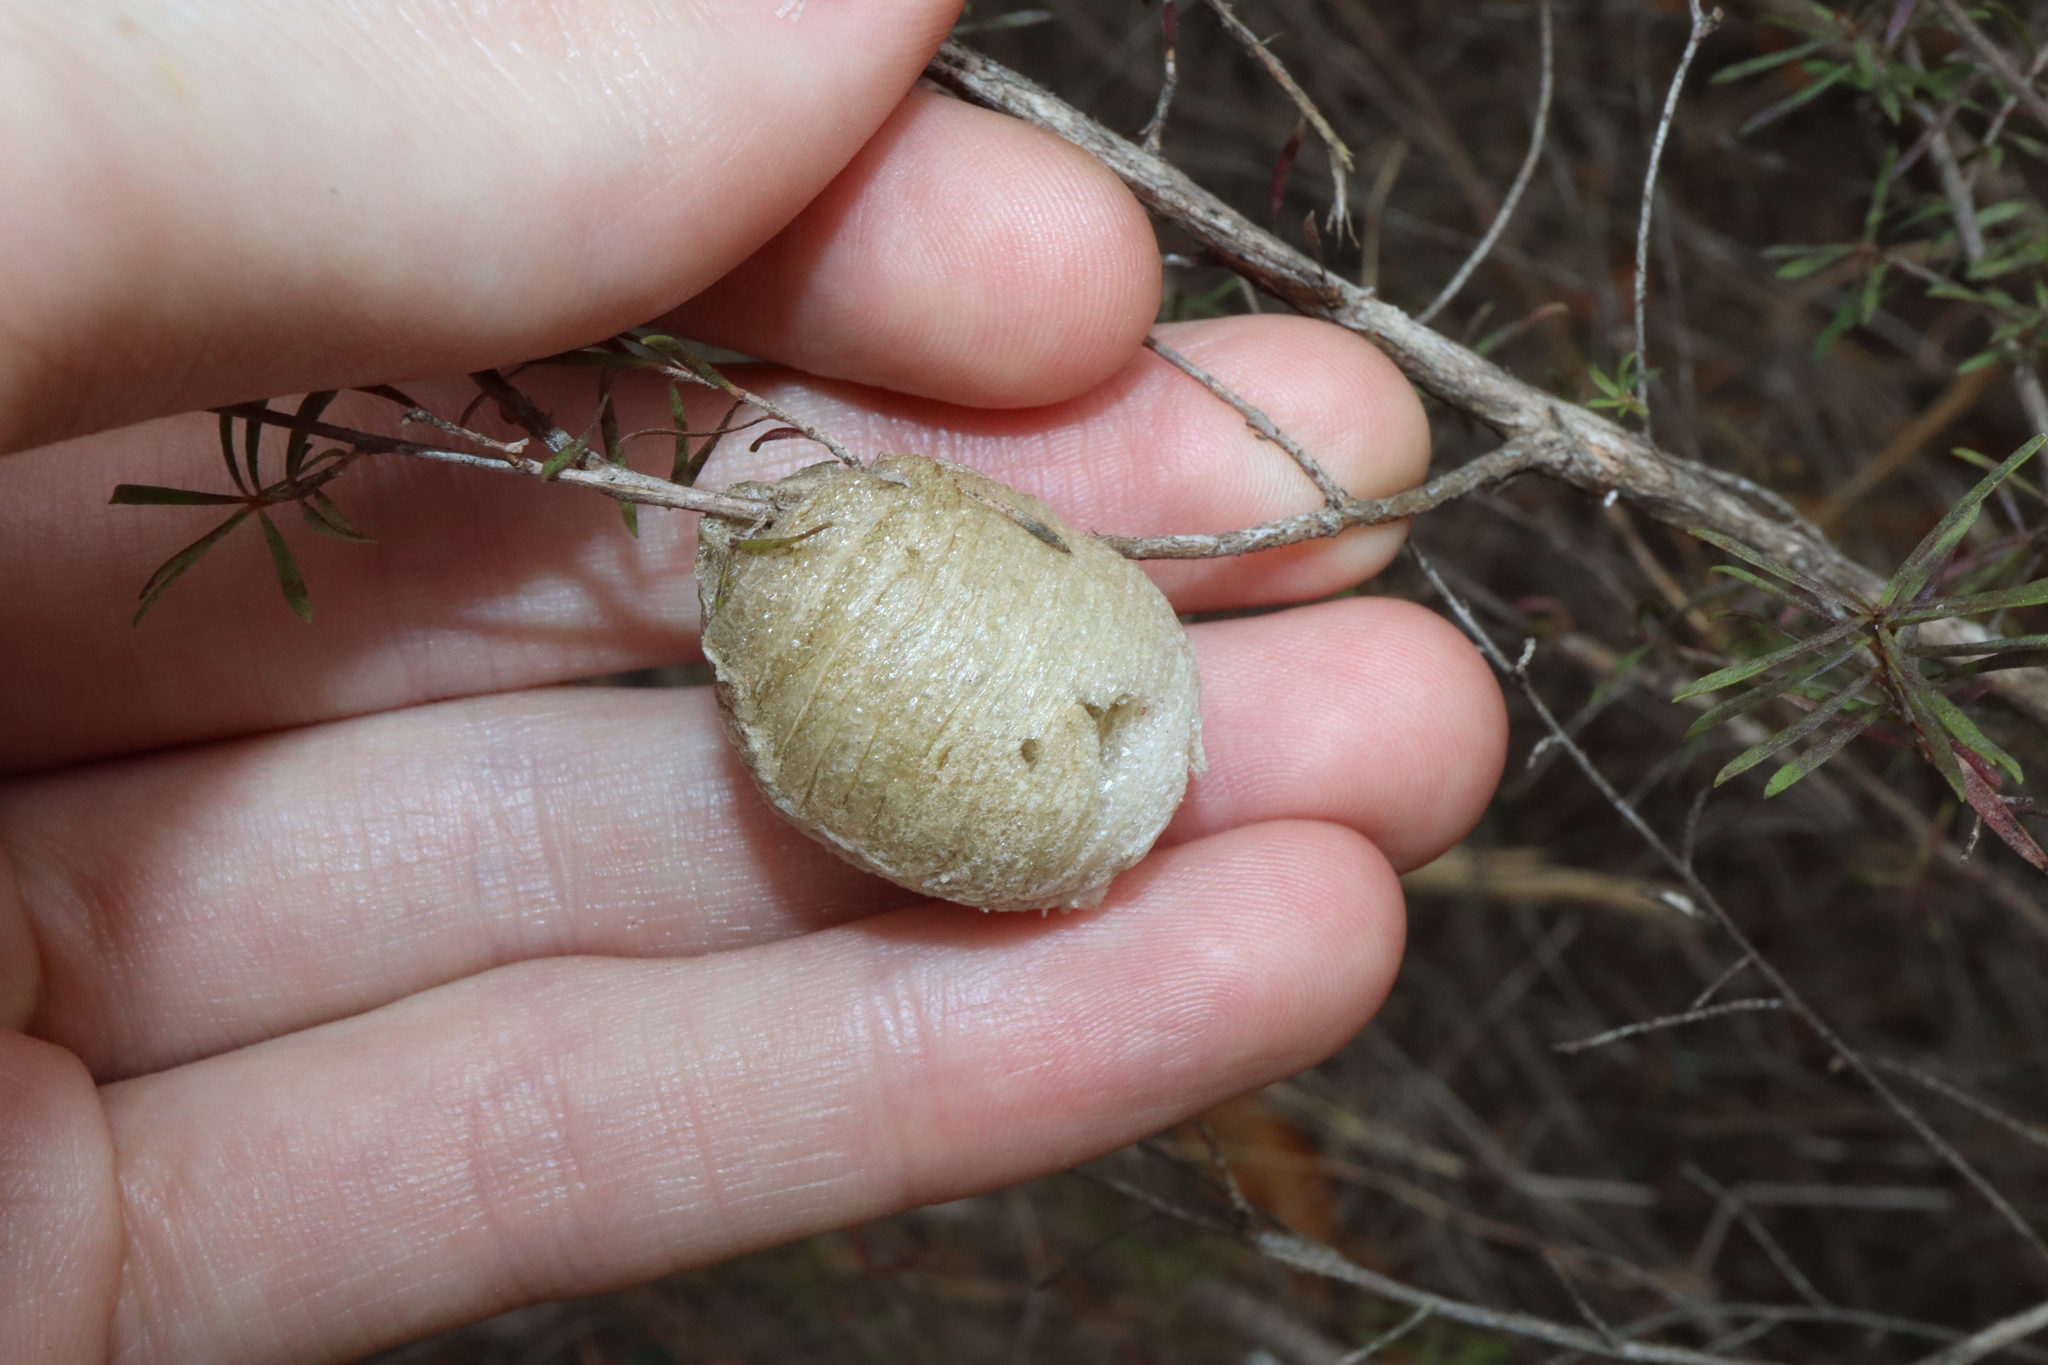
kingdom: Animalia
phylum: Arthropoda
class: Insecta
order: Mantodea
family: Mantidae
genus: Archimantis
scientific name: Archimantis latistyla
